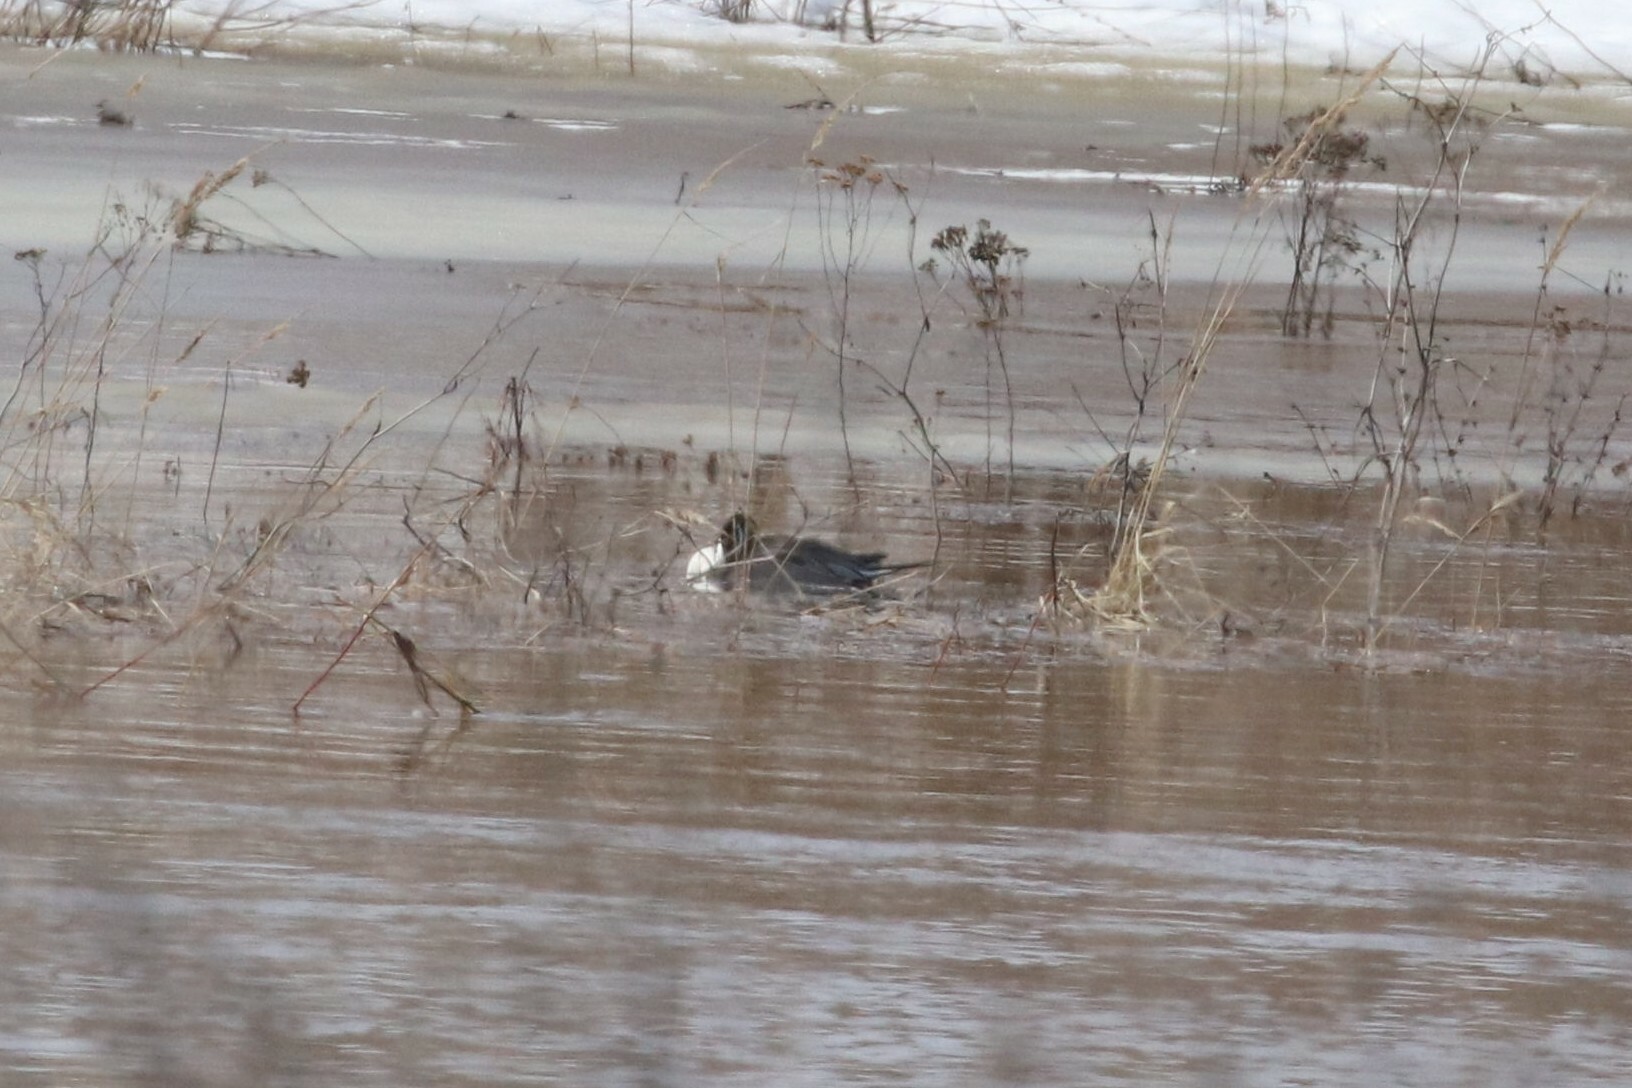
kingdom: Animalia
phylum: Chordata
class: Aves
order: Anseriformes
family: Anatidae
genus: Anas
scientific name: Anas acuta
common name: Northern pintail
